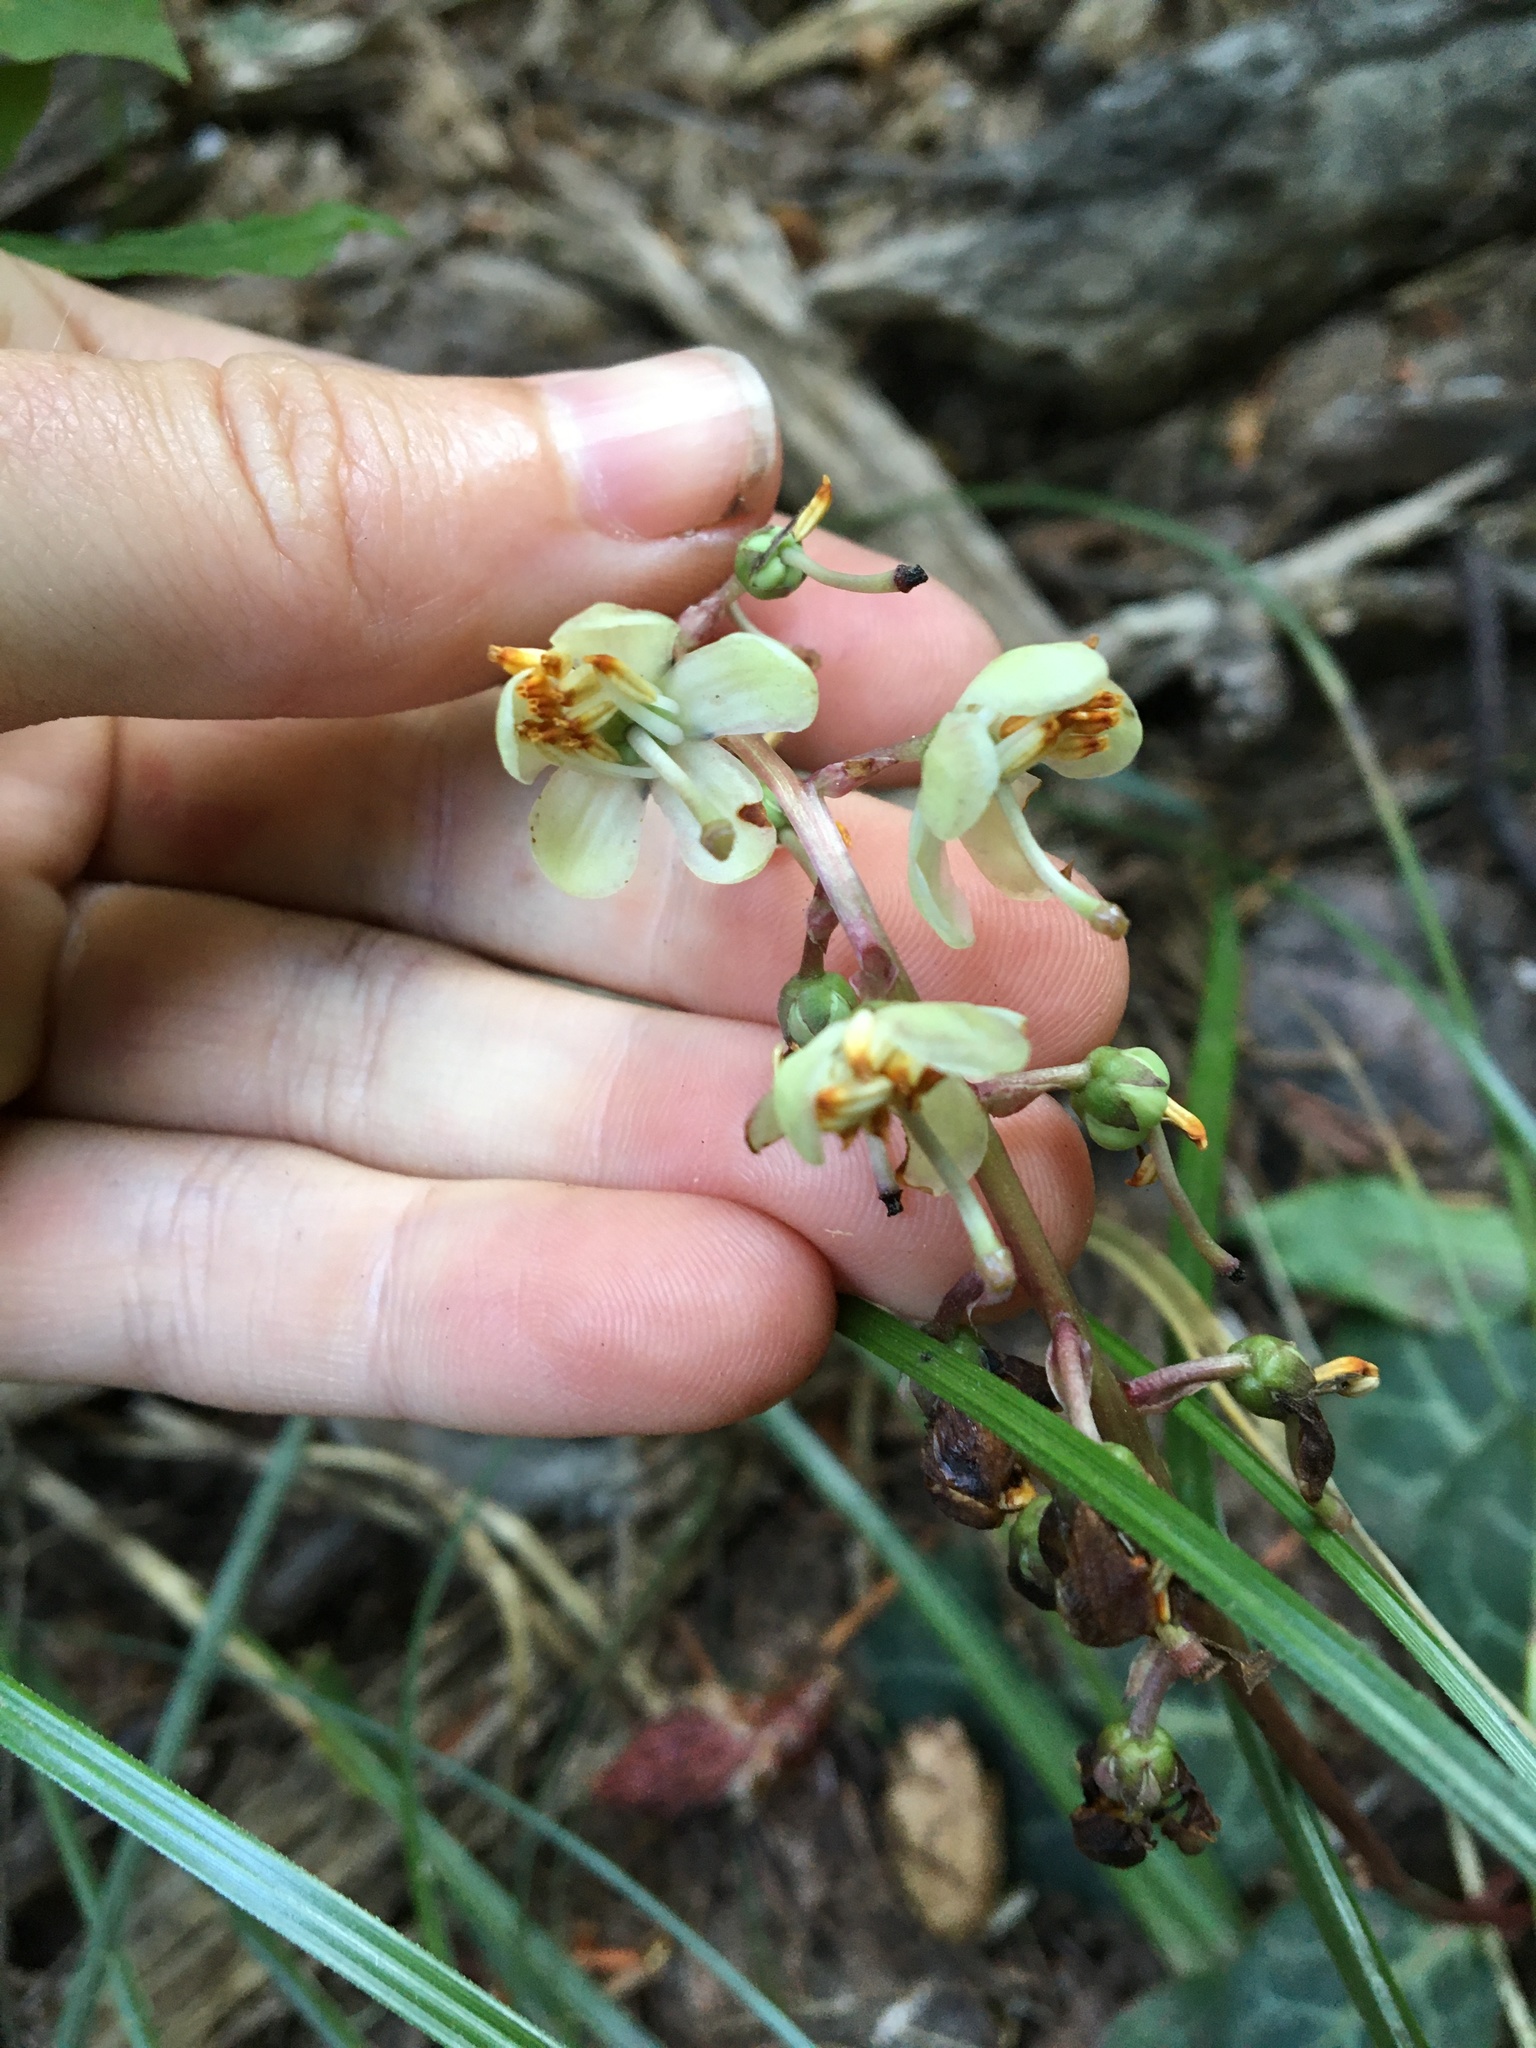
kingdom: Plantae
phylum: Tracheophyta
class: Magnoliopsida
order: Ericales
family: Ericaceae
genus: Pyrola
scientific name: Pyrola picta
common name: White-vein wintergreen
